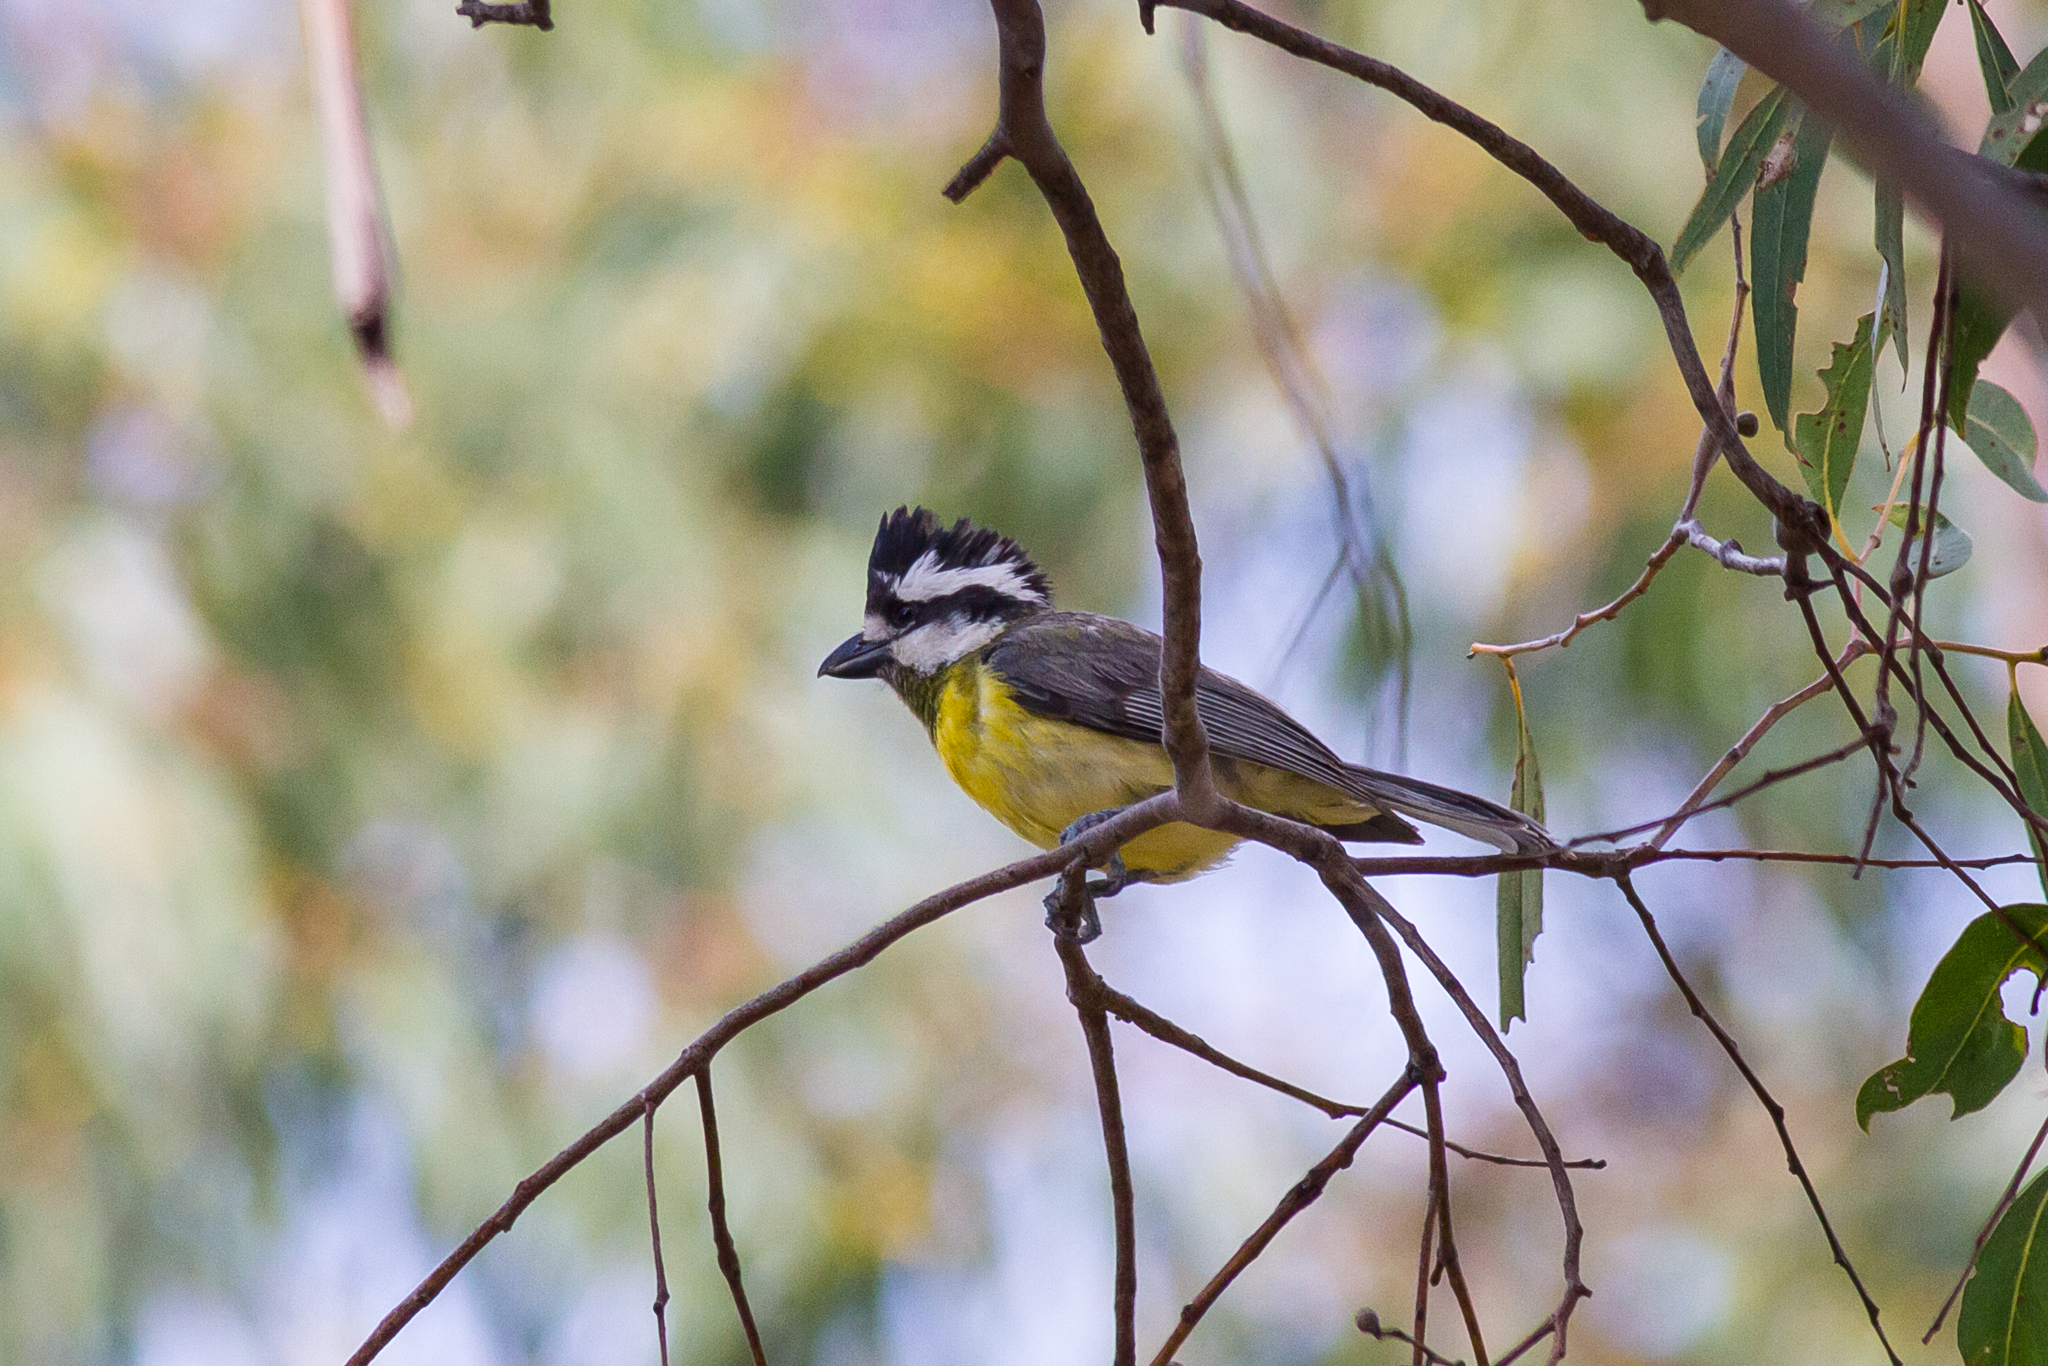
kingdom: Animalia
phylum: Chordata
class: Aves
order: Passeriformes
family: Pachycephalidae
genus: Falcunculus
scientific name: Falcunculus frontatus
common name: Crested shriketit
